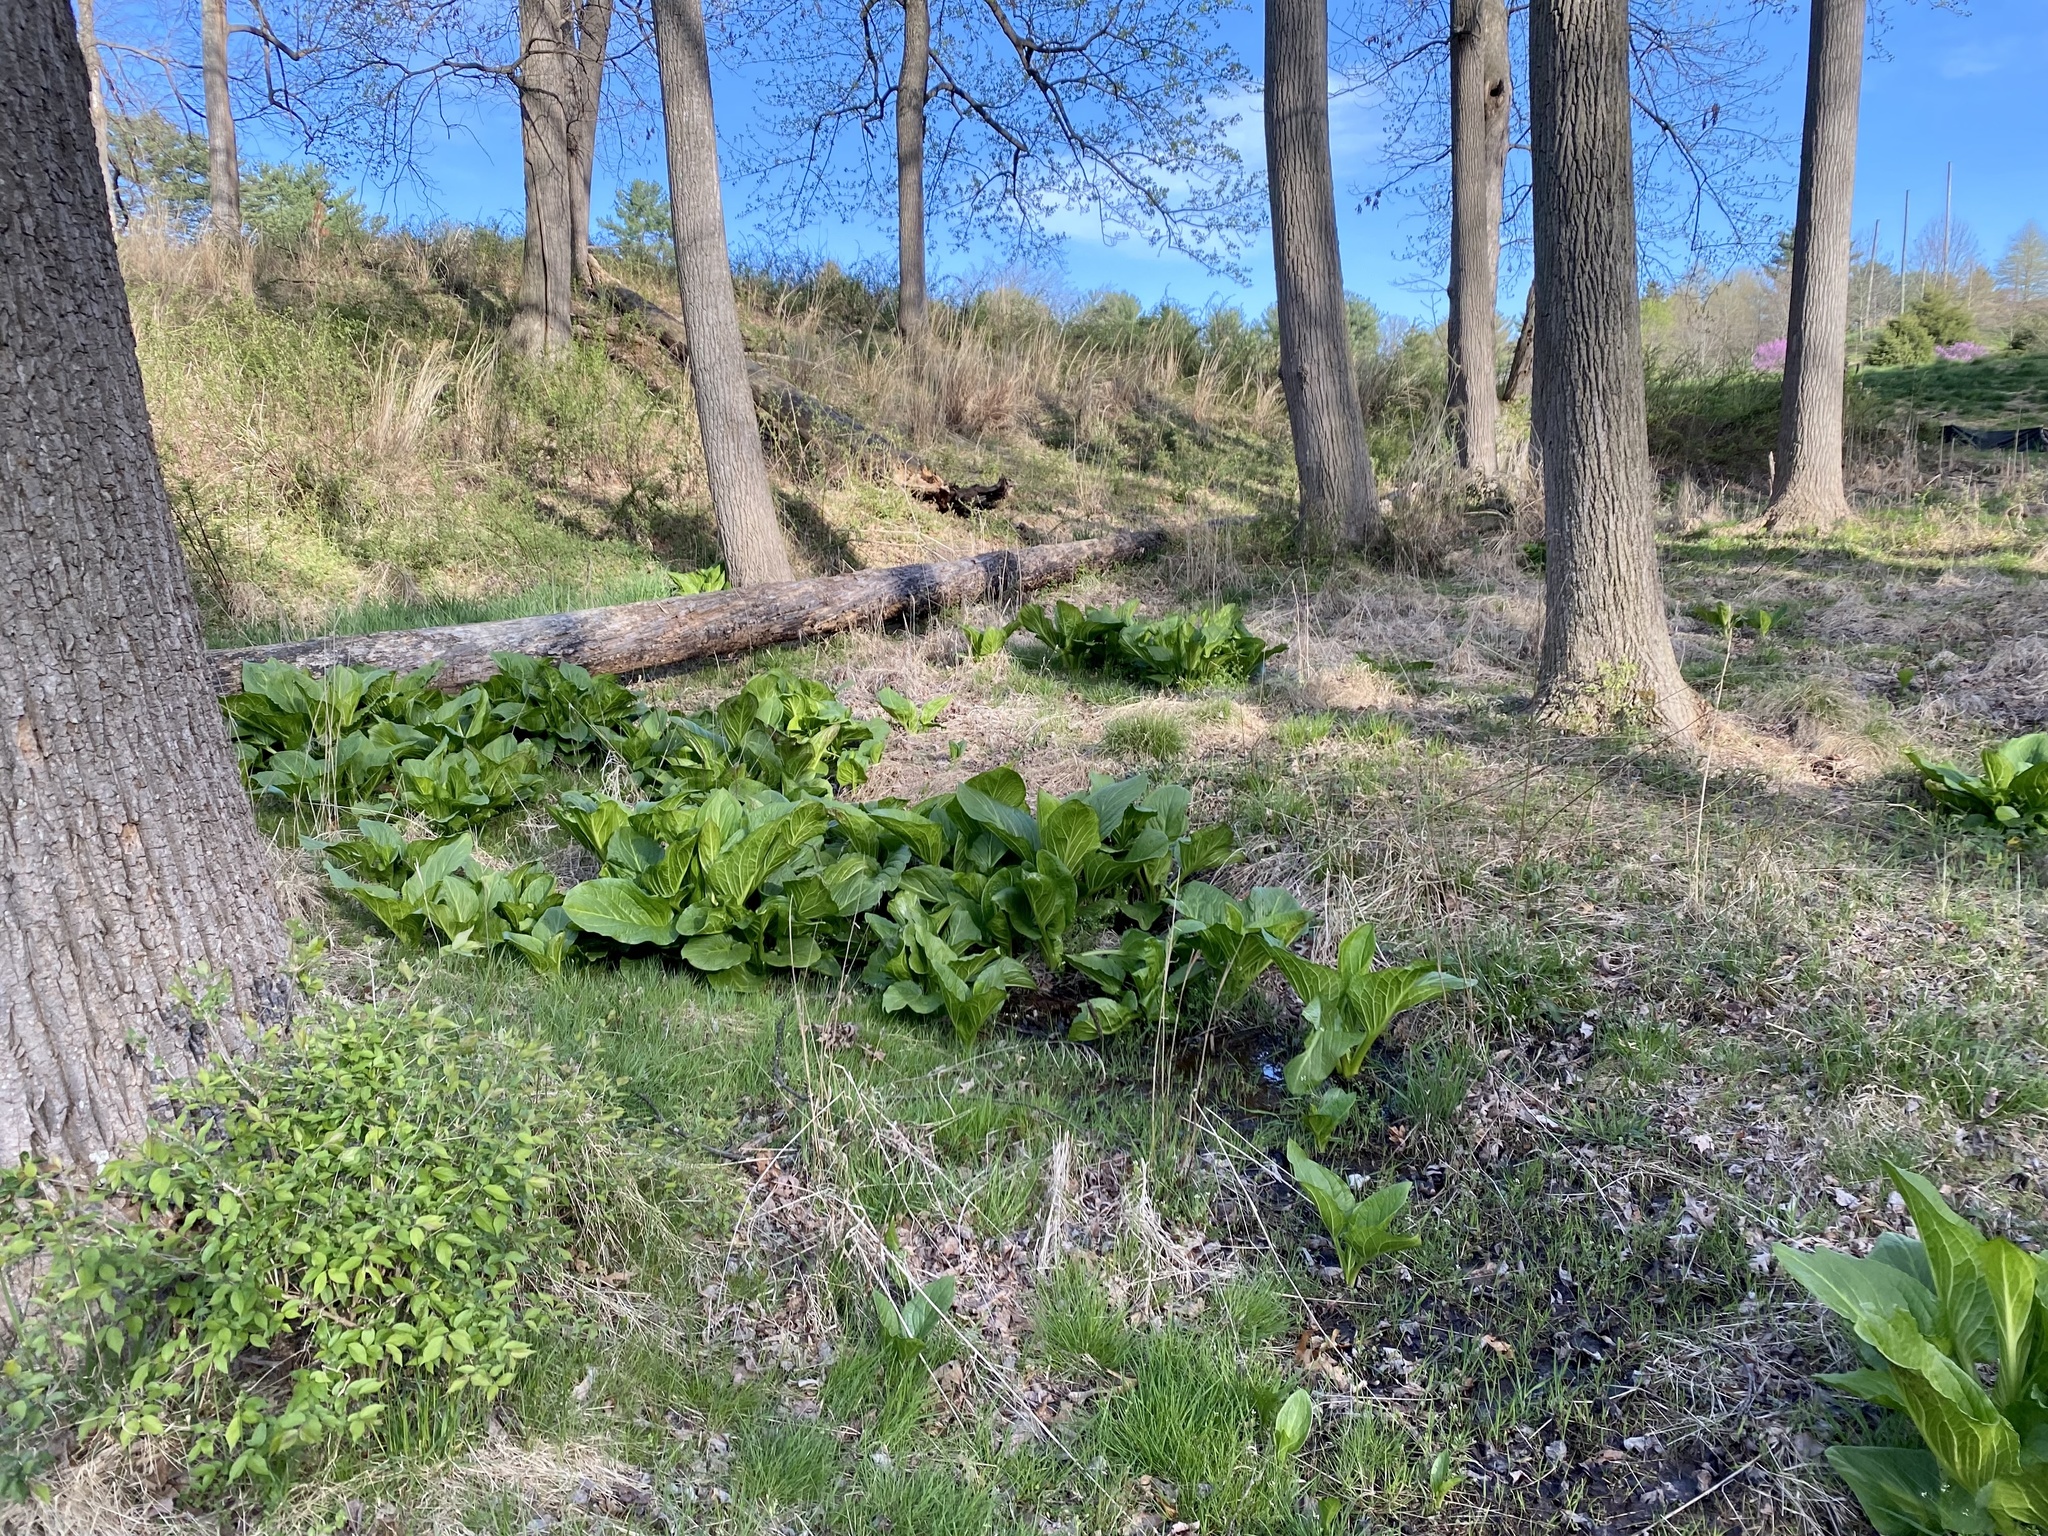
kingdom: Plantae
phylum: Tracheophyta
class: Liliopsida
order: Alismatales
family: Araceae
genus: Symplocarpus
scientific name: Symplocarpus foetidus
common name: Eastern skunk cabbage
